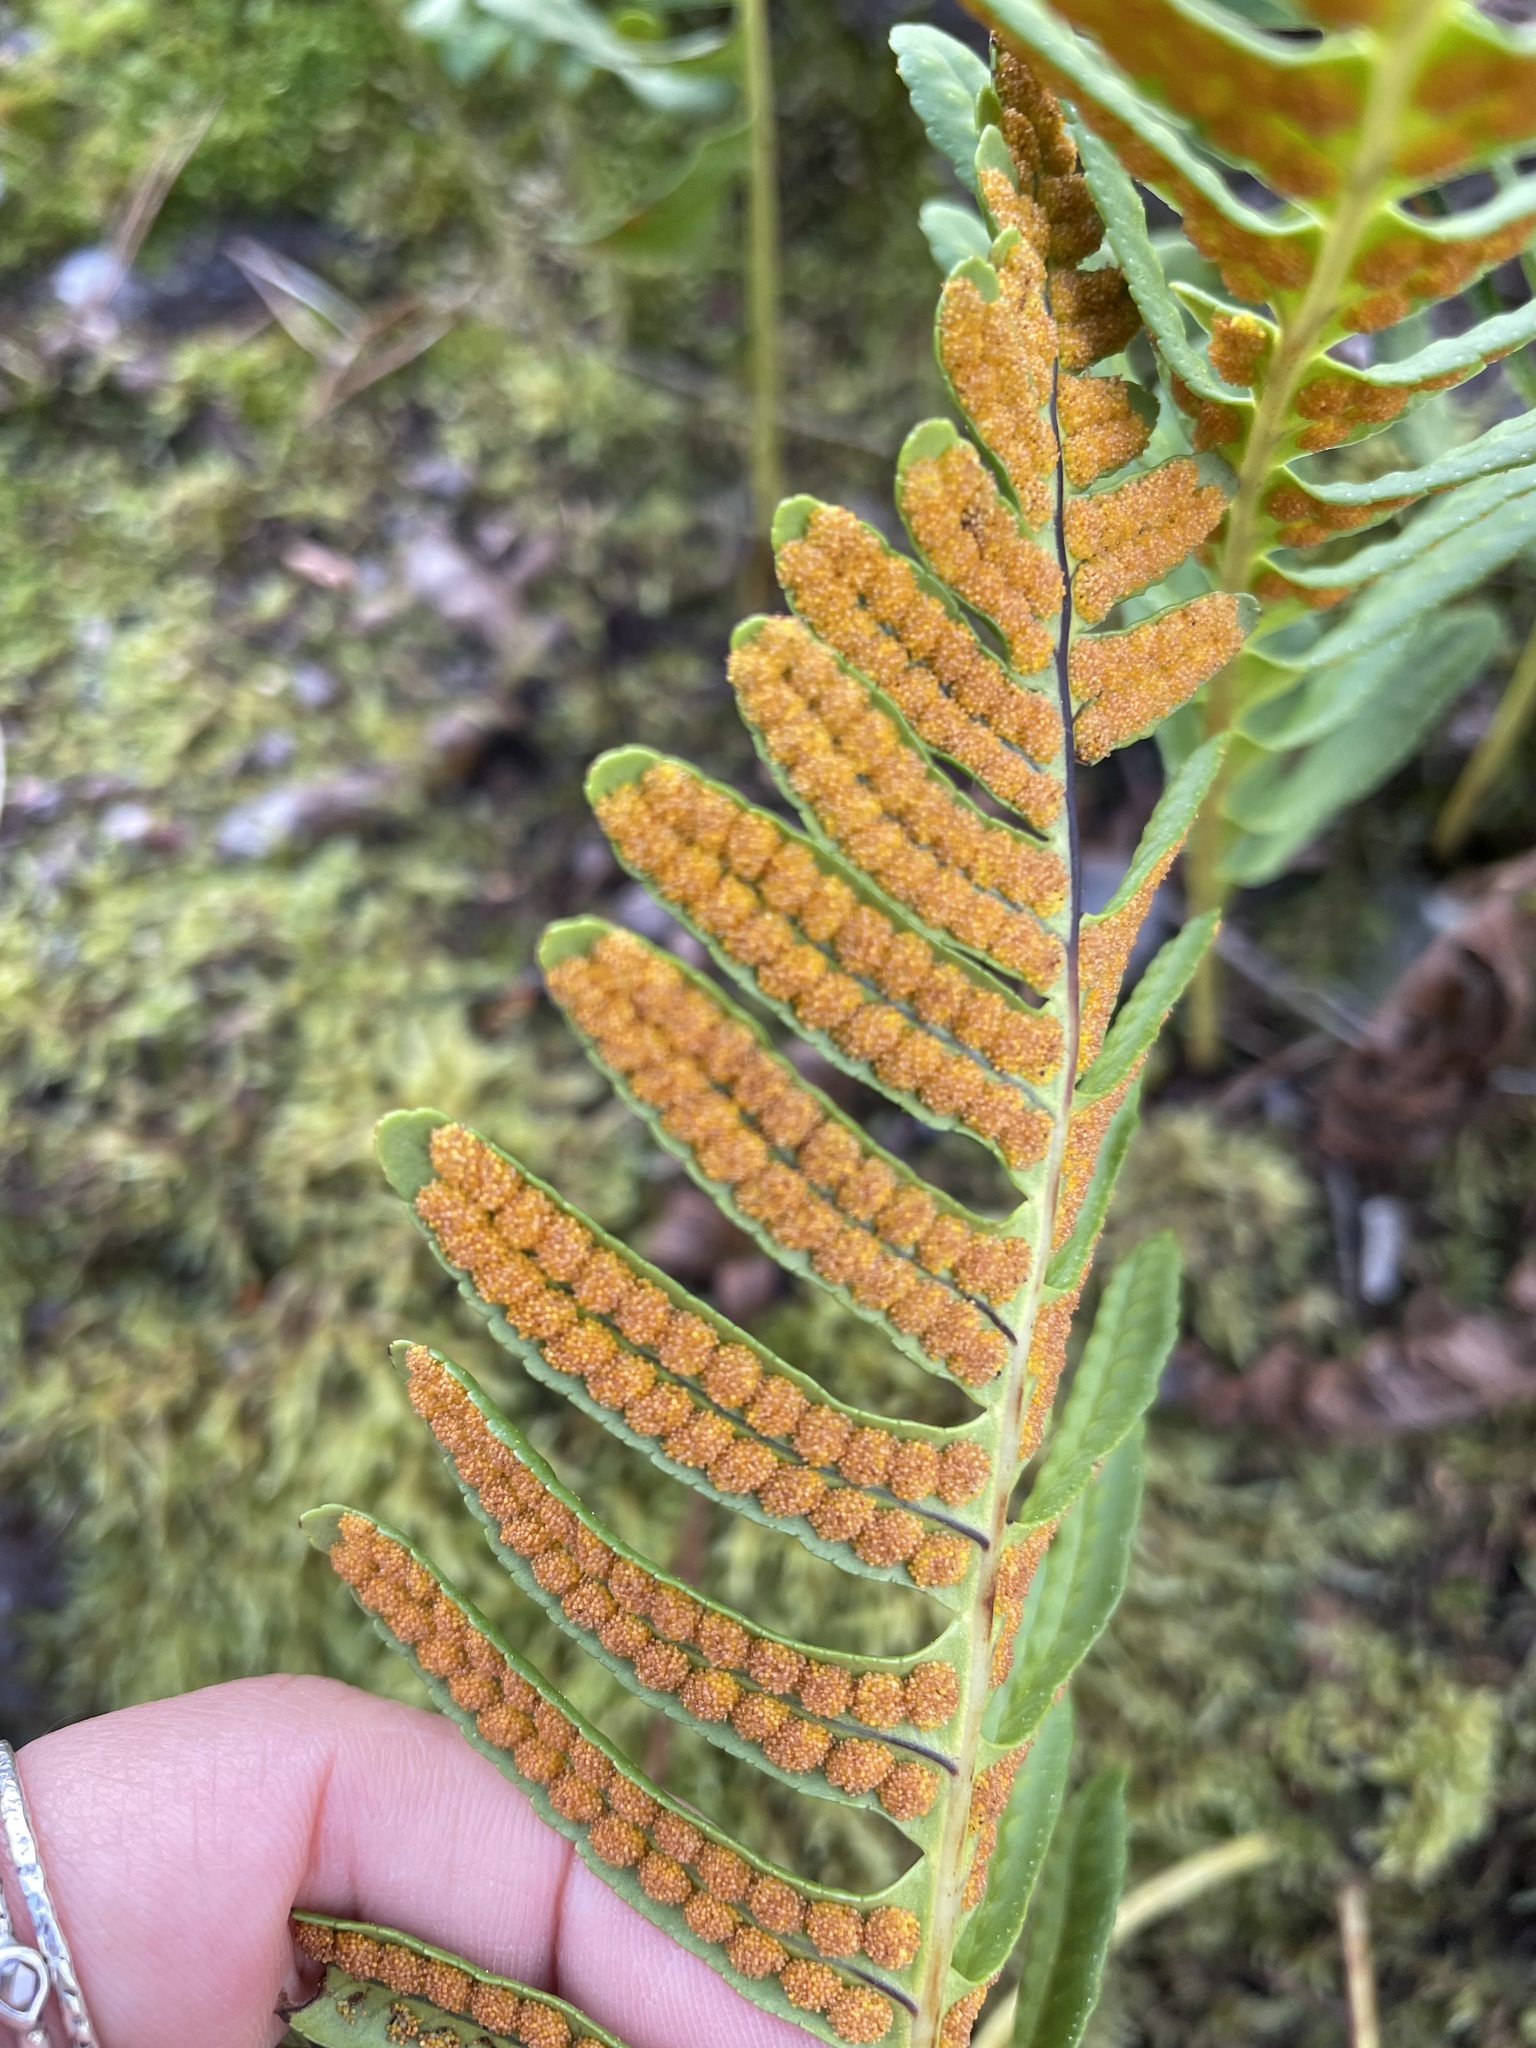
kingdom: Plantae
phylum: Tracheophyta
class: Polypodiopsida
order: Polypodiales
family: Polypodiaceae
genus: Polypodium
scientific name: Polypodium vulgare
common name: Common polypody
